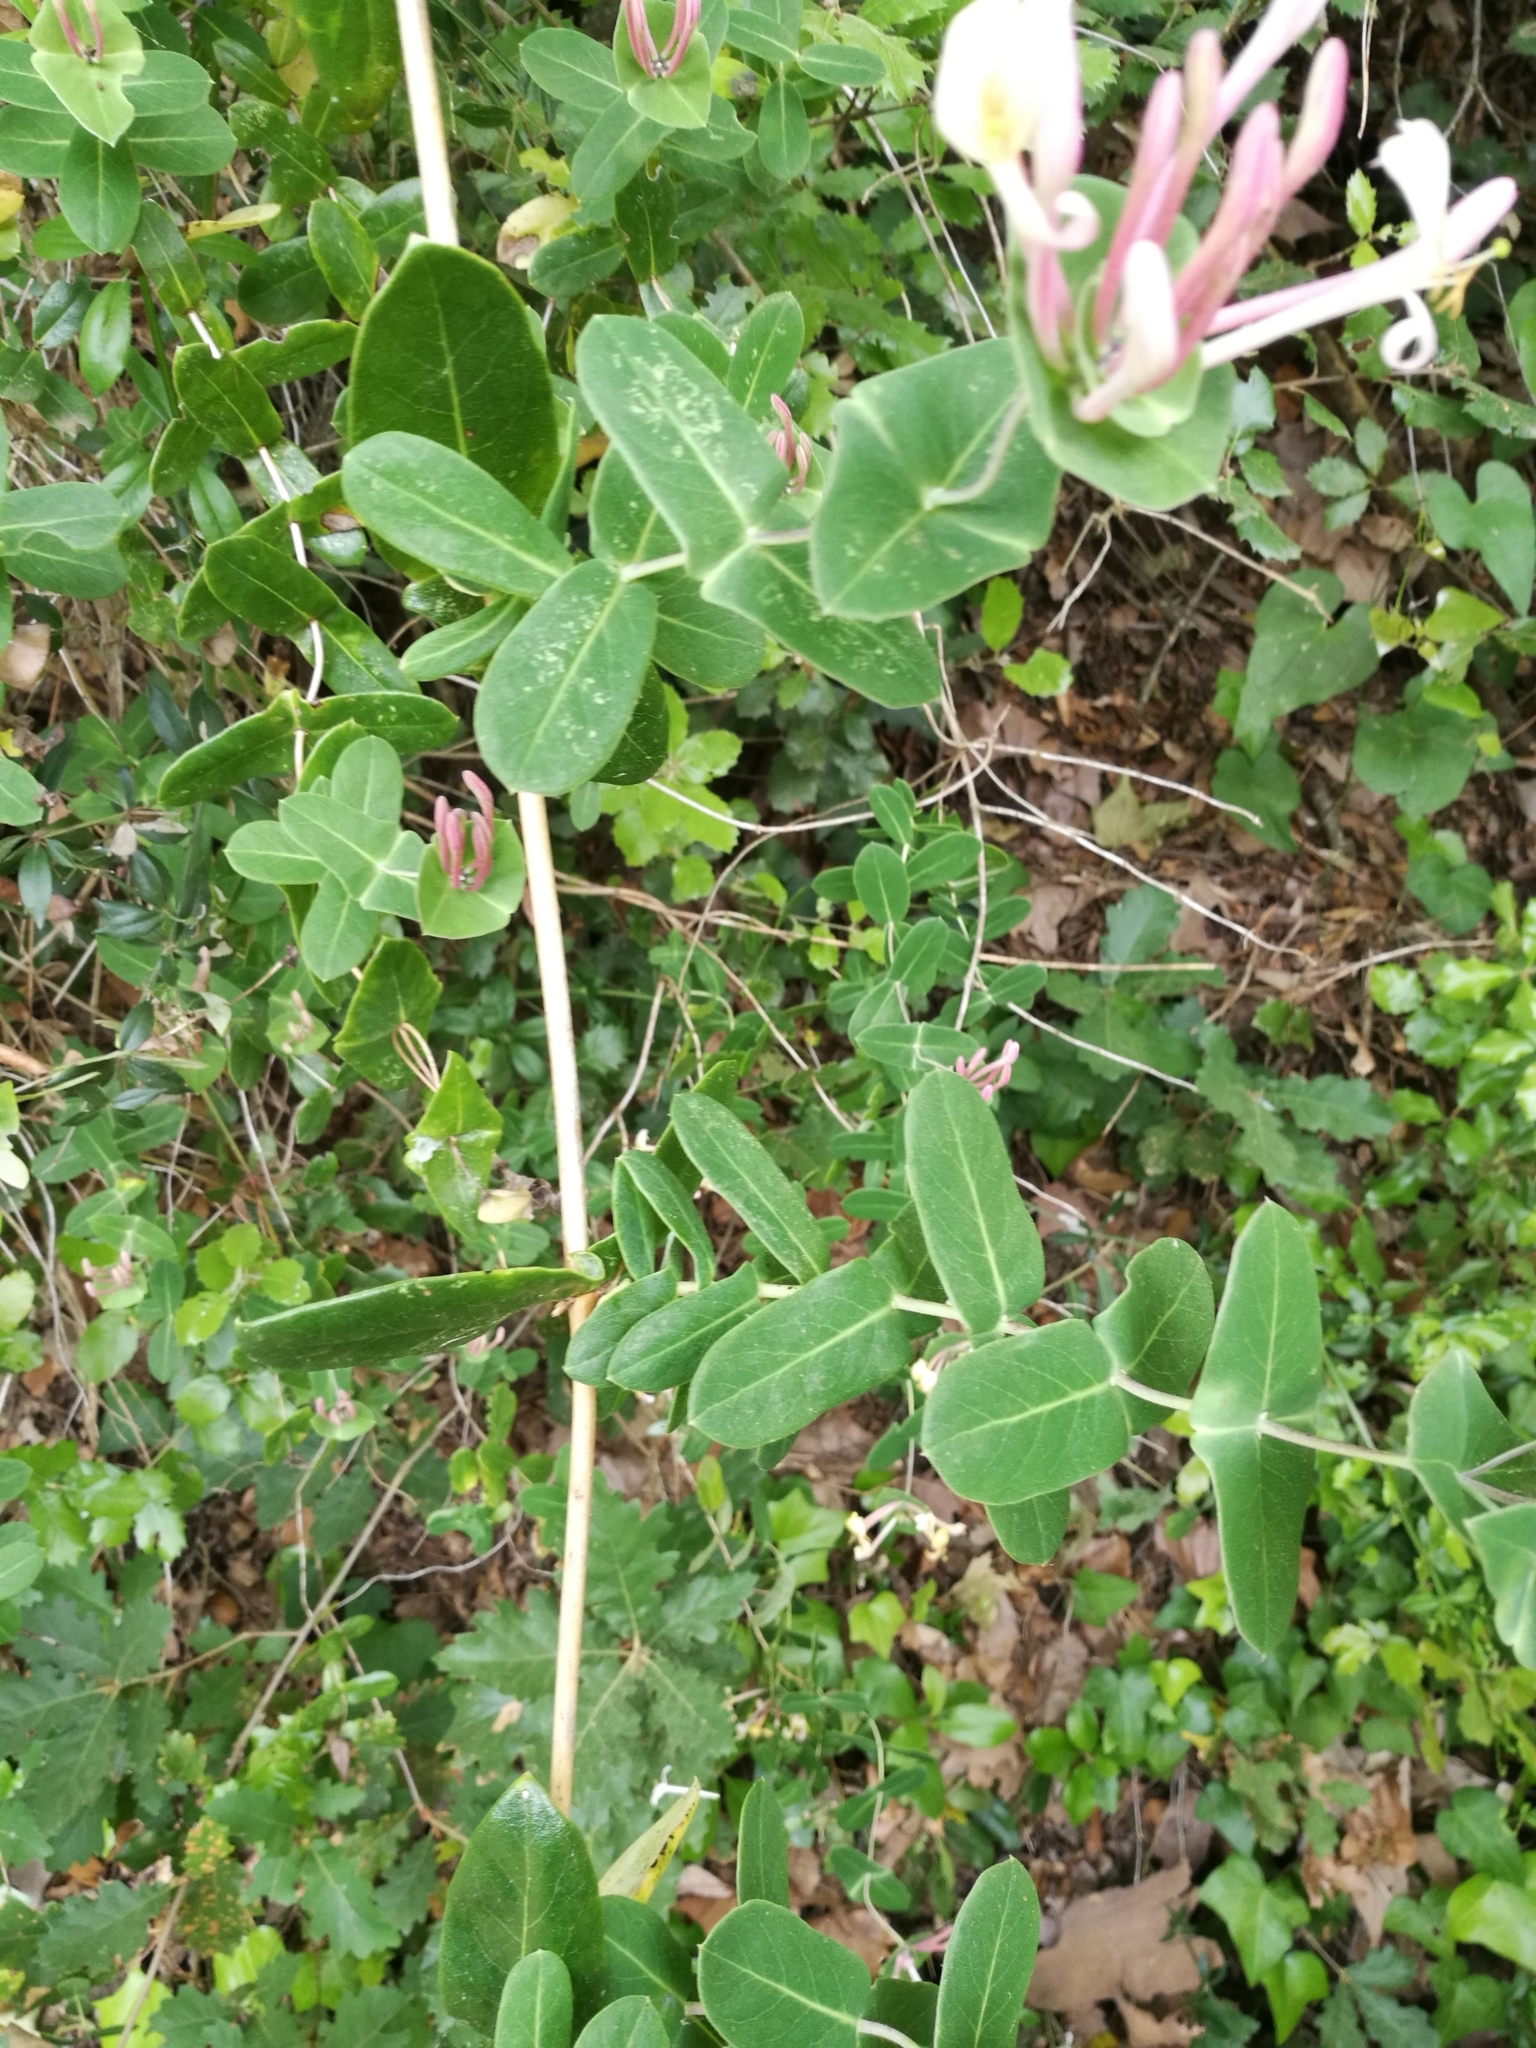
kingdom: Plantae
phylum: Tracheophyta
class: Magnoliopsida
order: Dipsacales
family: Caprifoliaceae
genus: Lonicera
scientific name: Lonicera implexa
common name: Minorca honeysuckle
